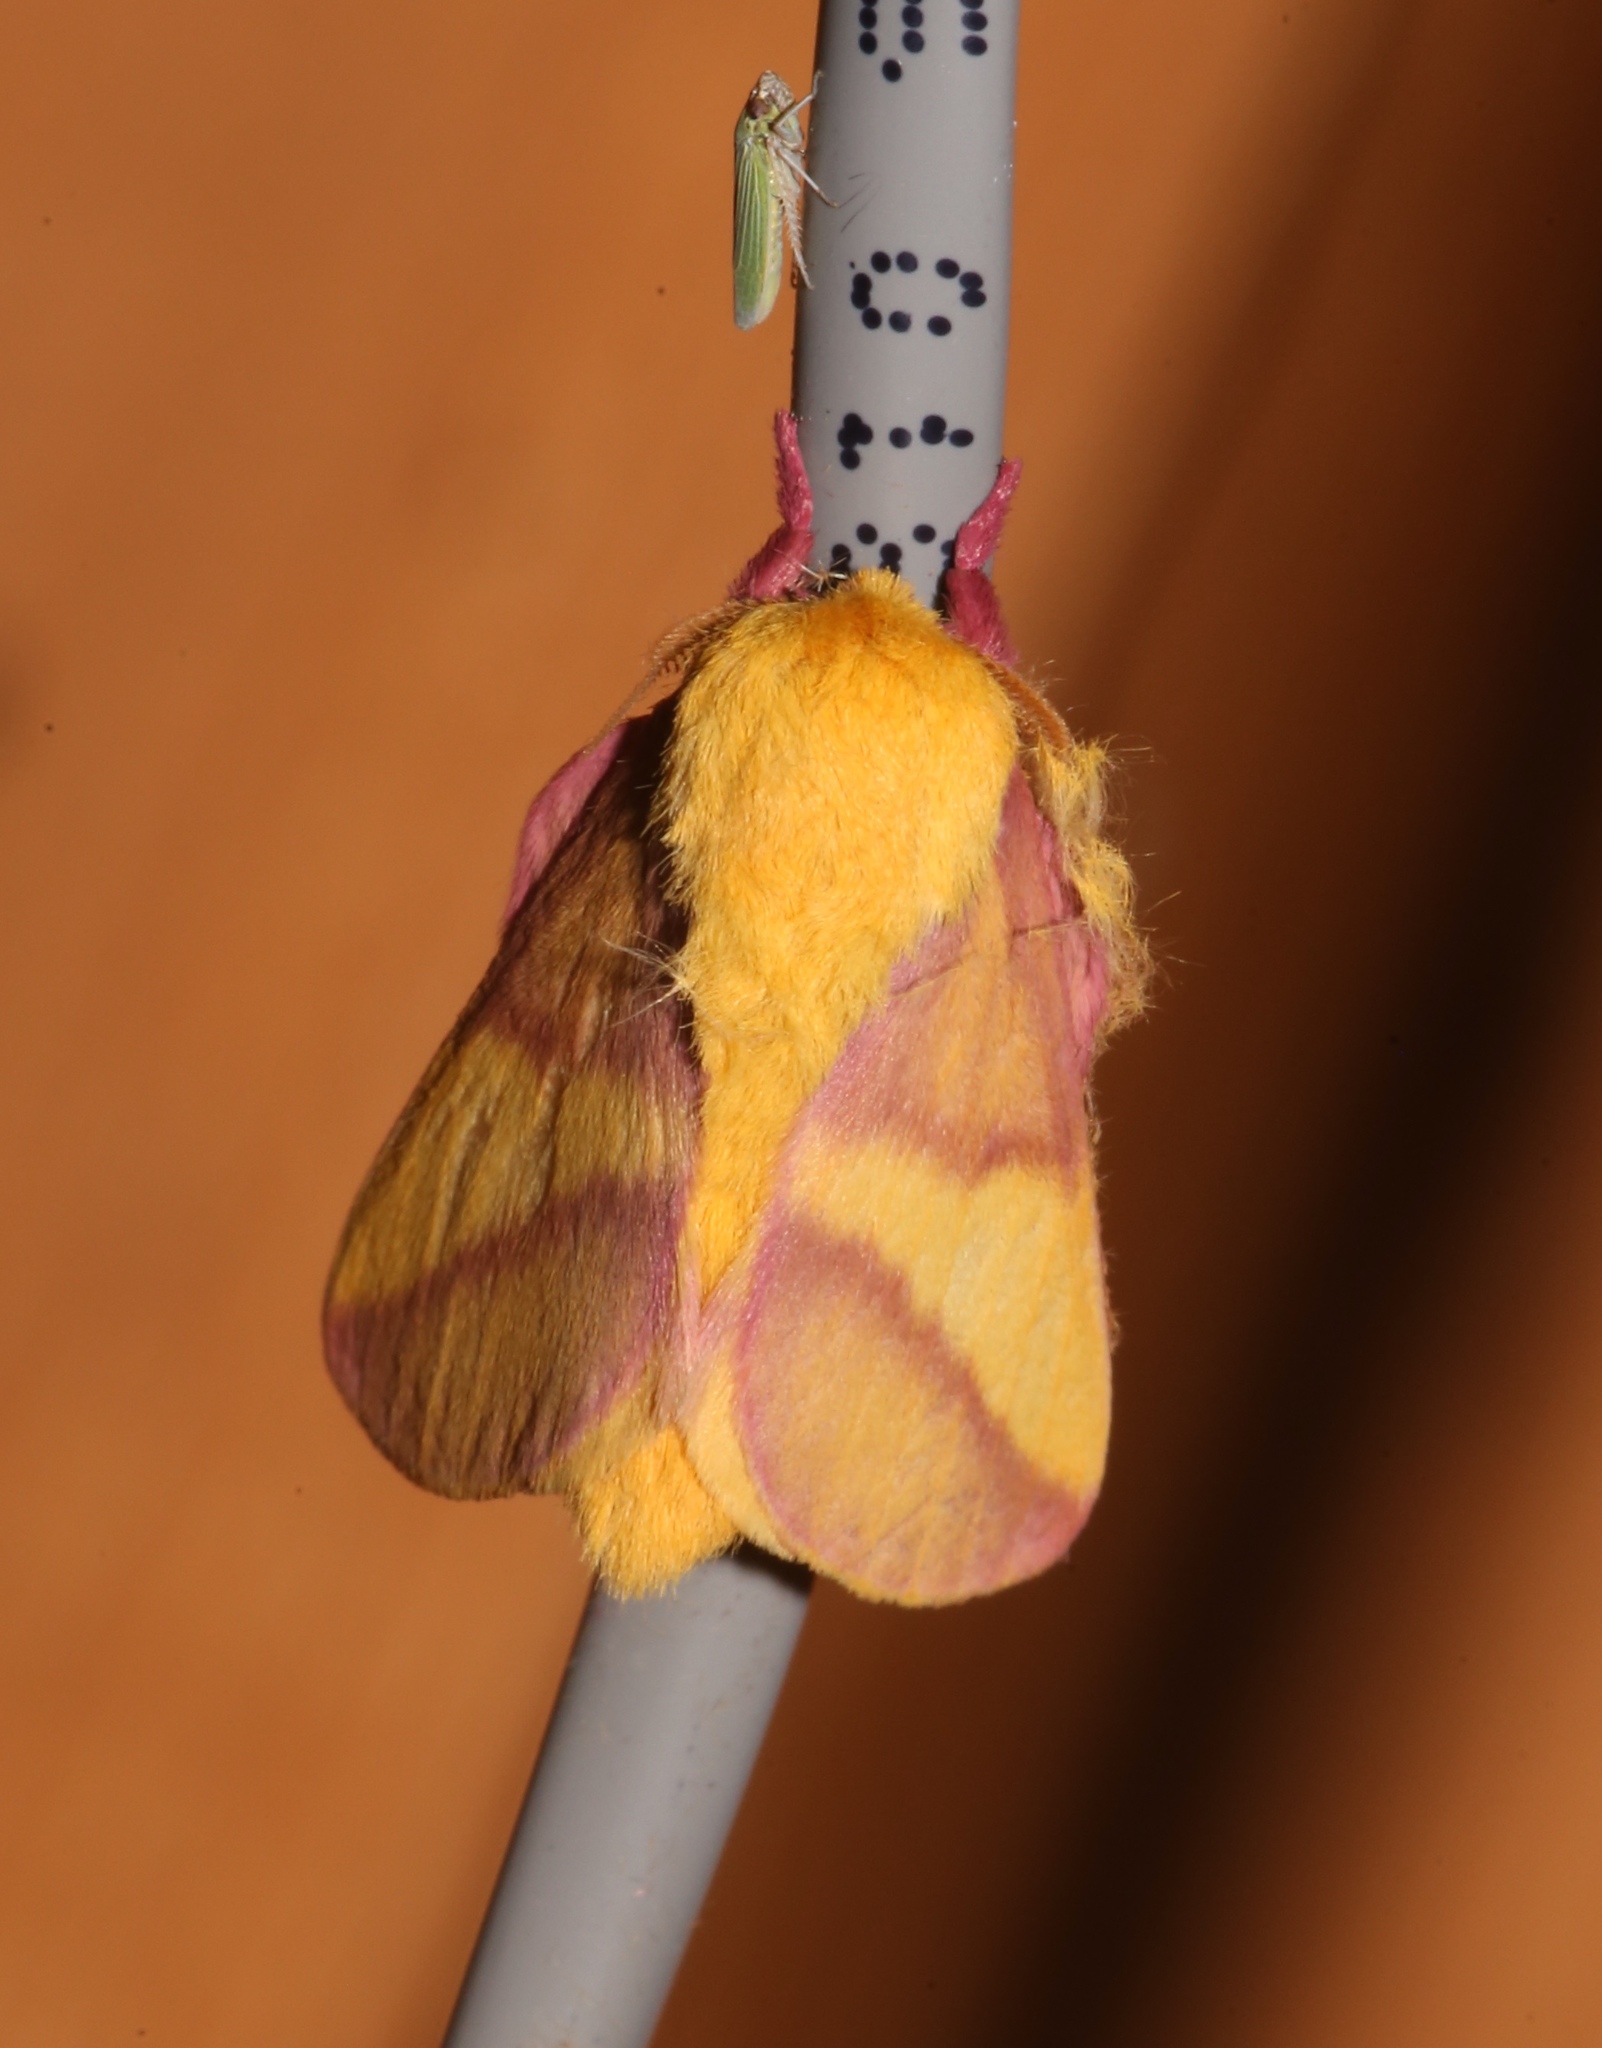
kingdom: Animalia
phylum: Arthropoda
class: Insecta
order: Lepidoptera
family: Saturniidae
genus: Dryocampa
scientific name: Dryocampa rubicunda
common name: Rosy maple moth
